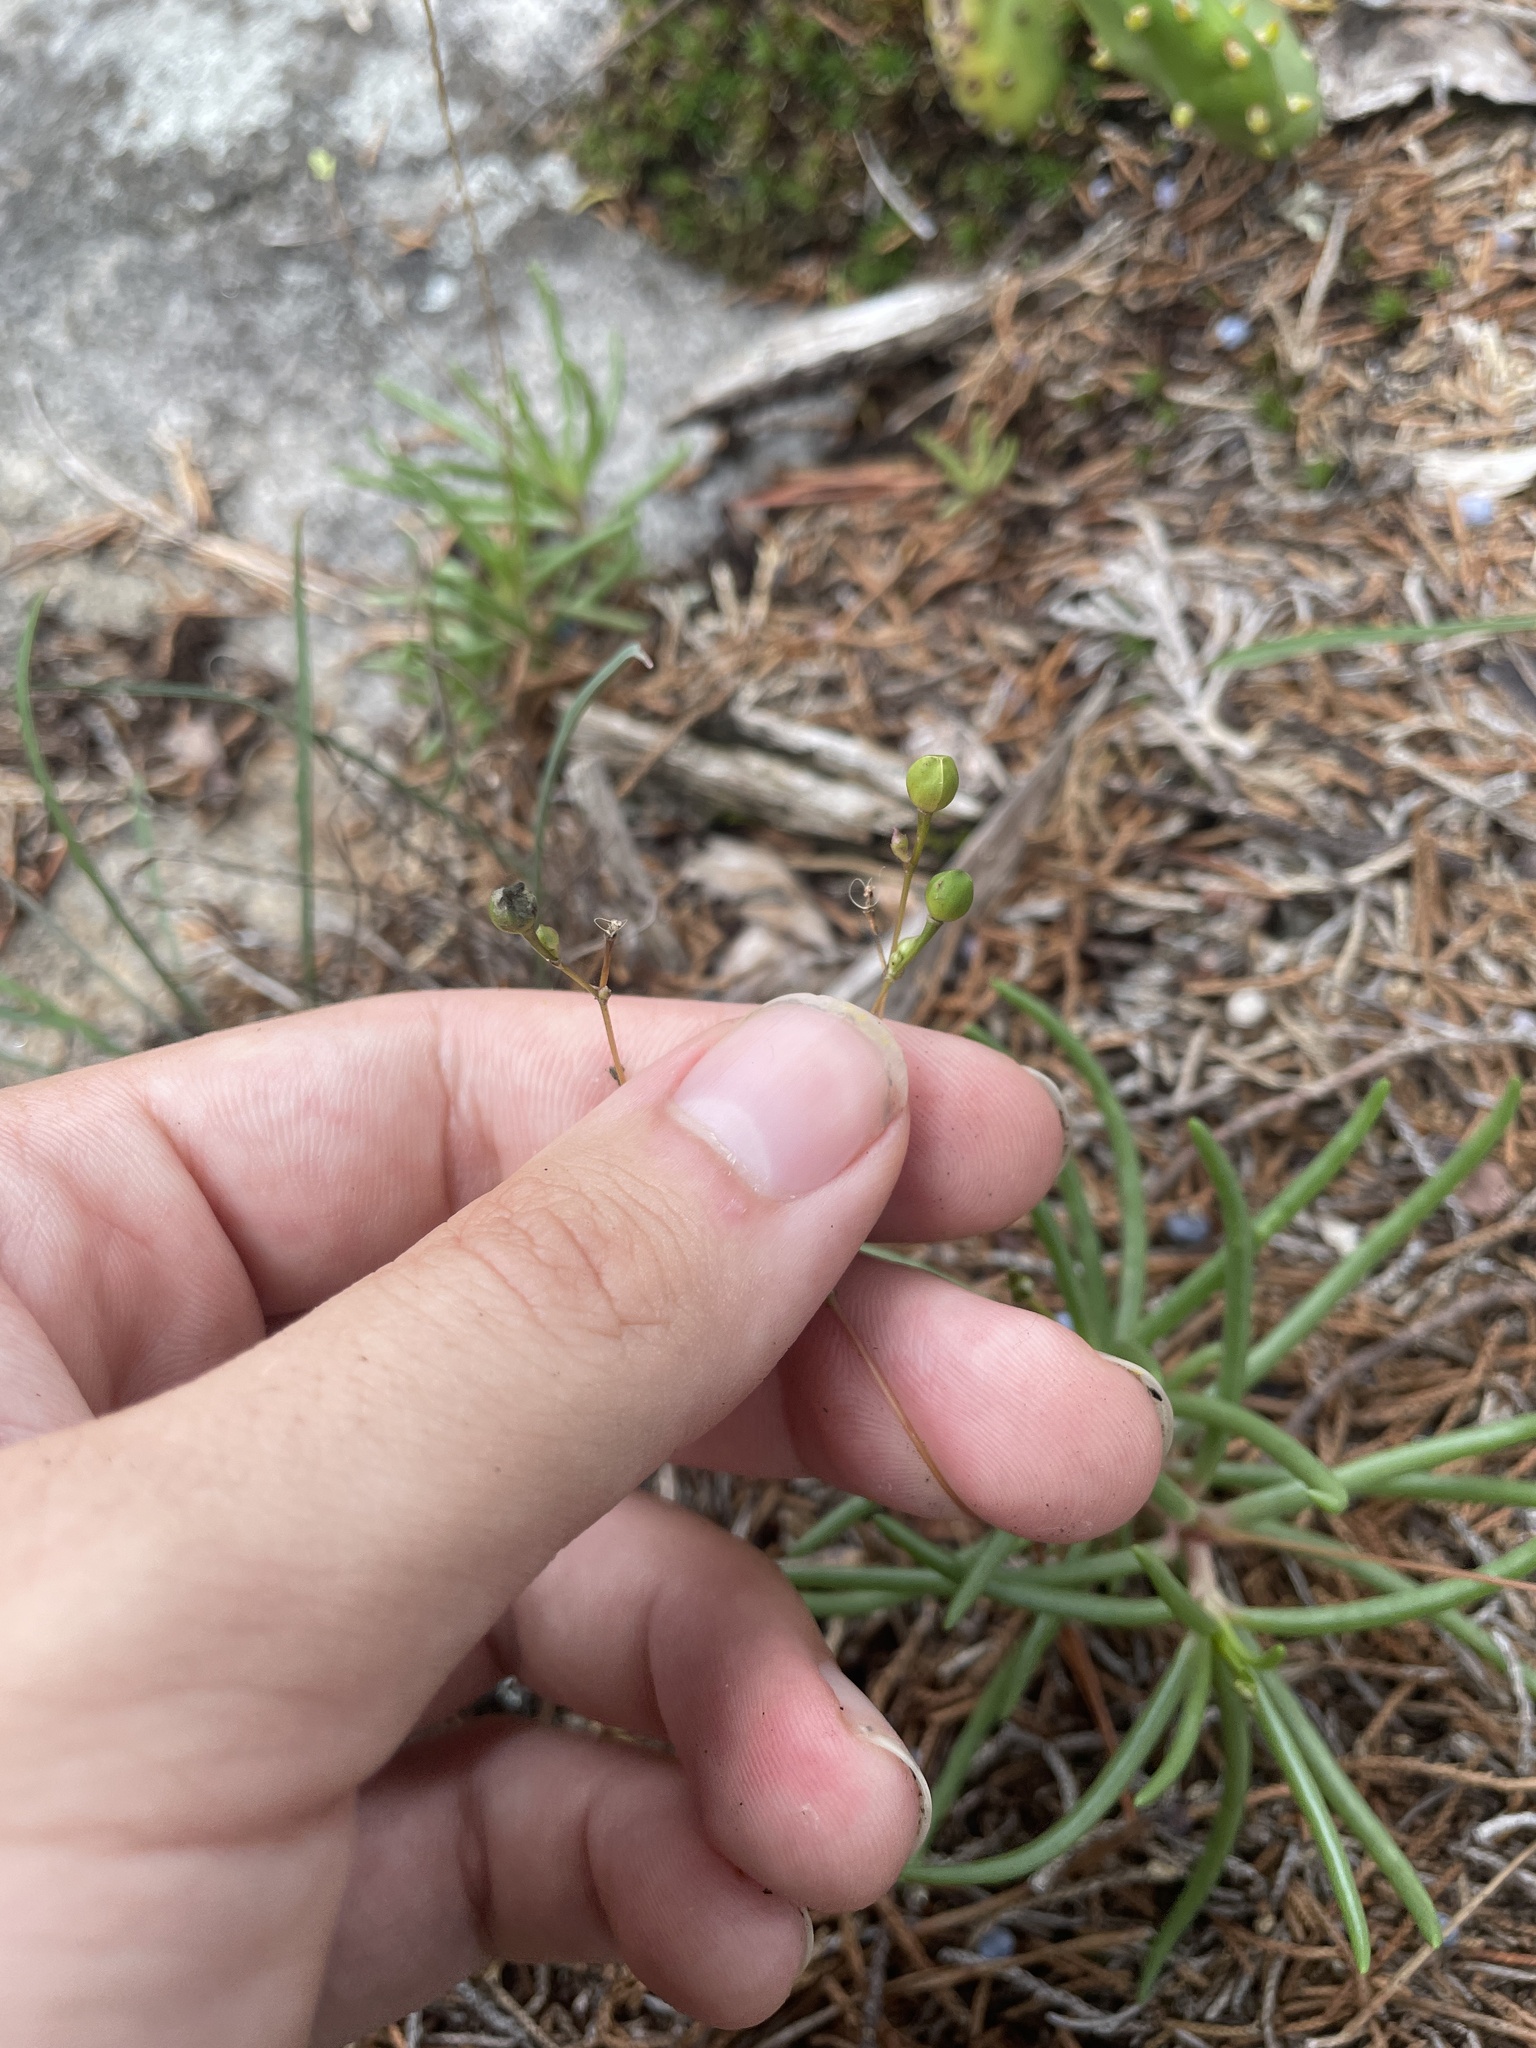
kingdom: Plantae
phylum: Tracheophyta
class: Magnoliopsida
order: Caryophyllales
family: Montiaceae
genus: Phemeranthus
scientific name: Phemeranthus teretifolius
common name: Quill fameflower
